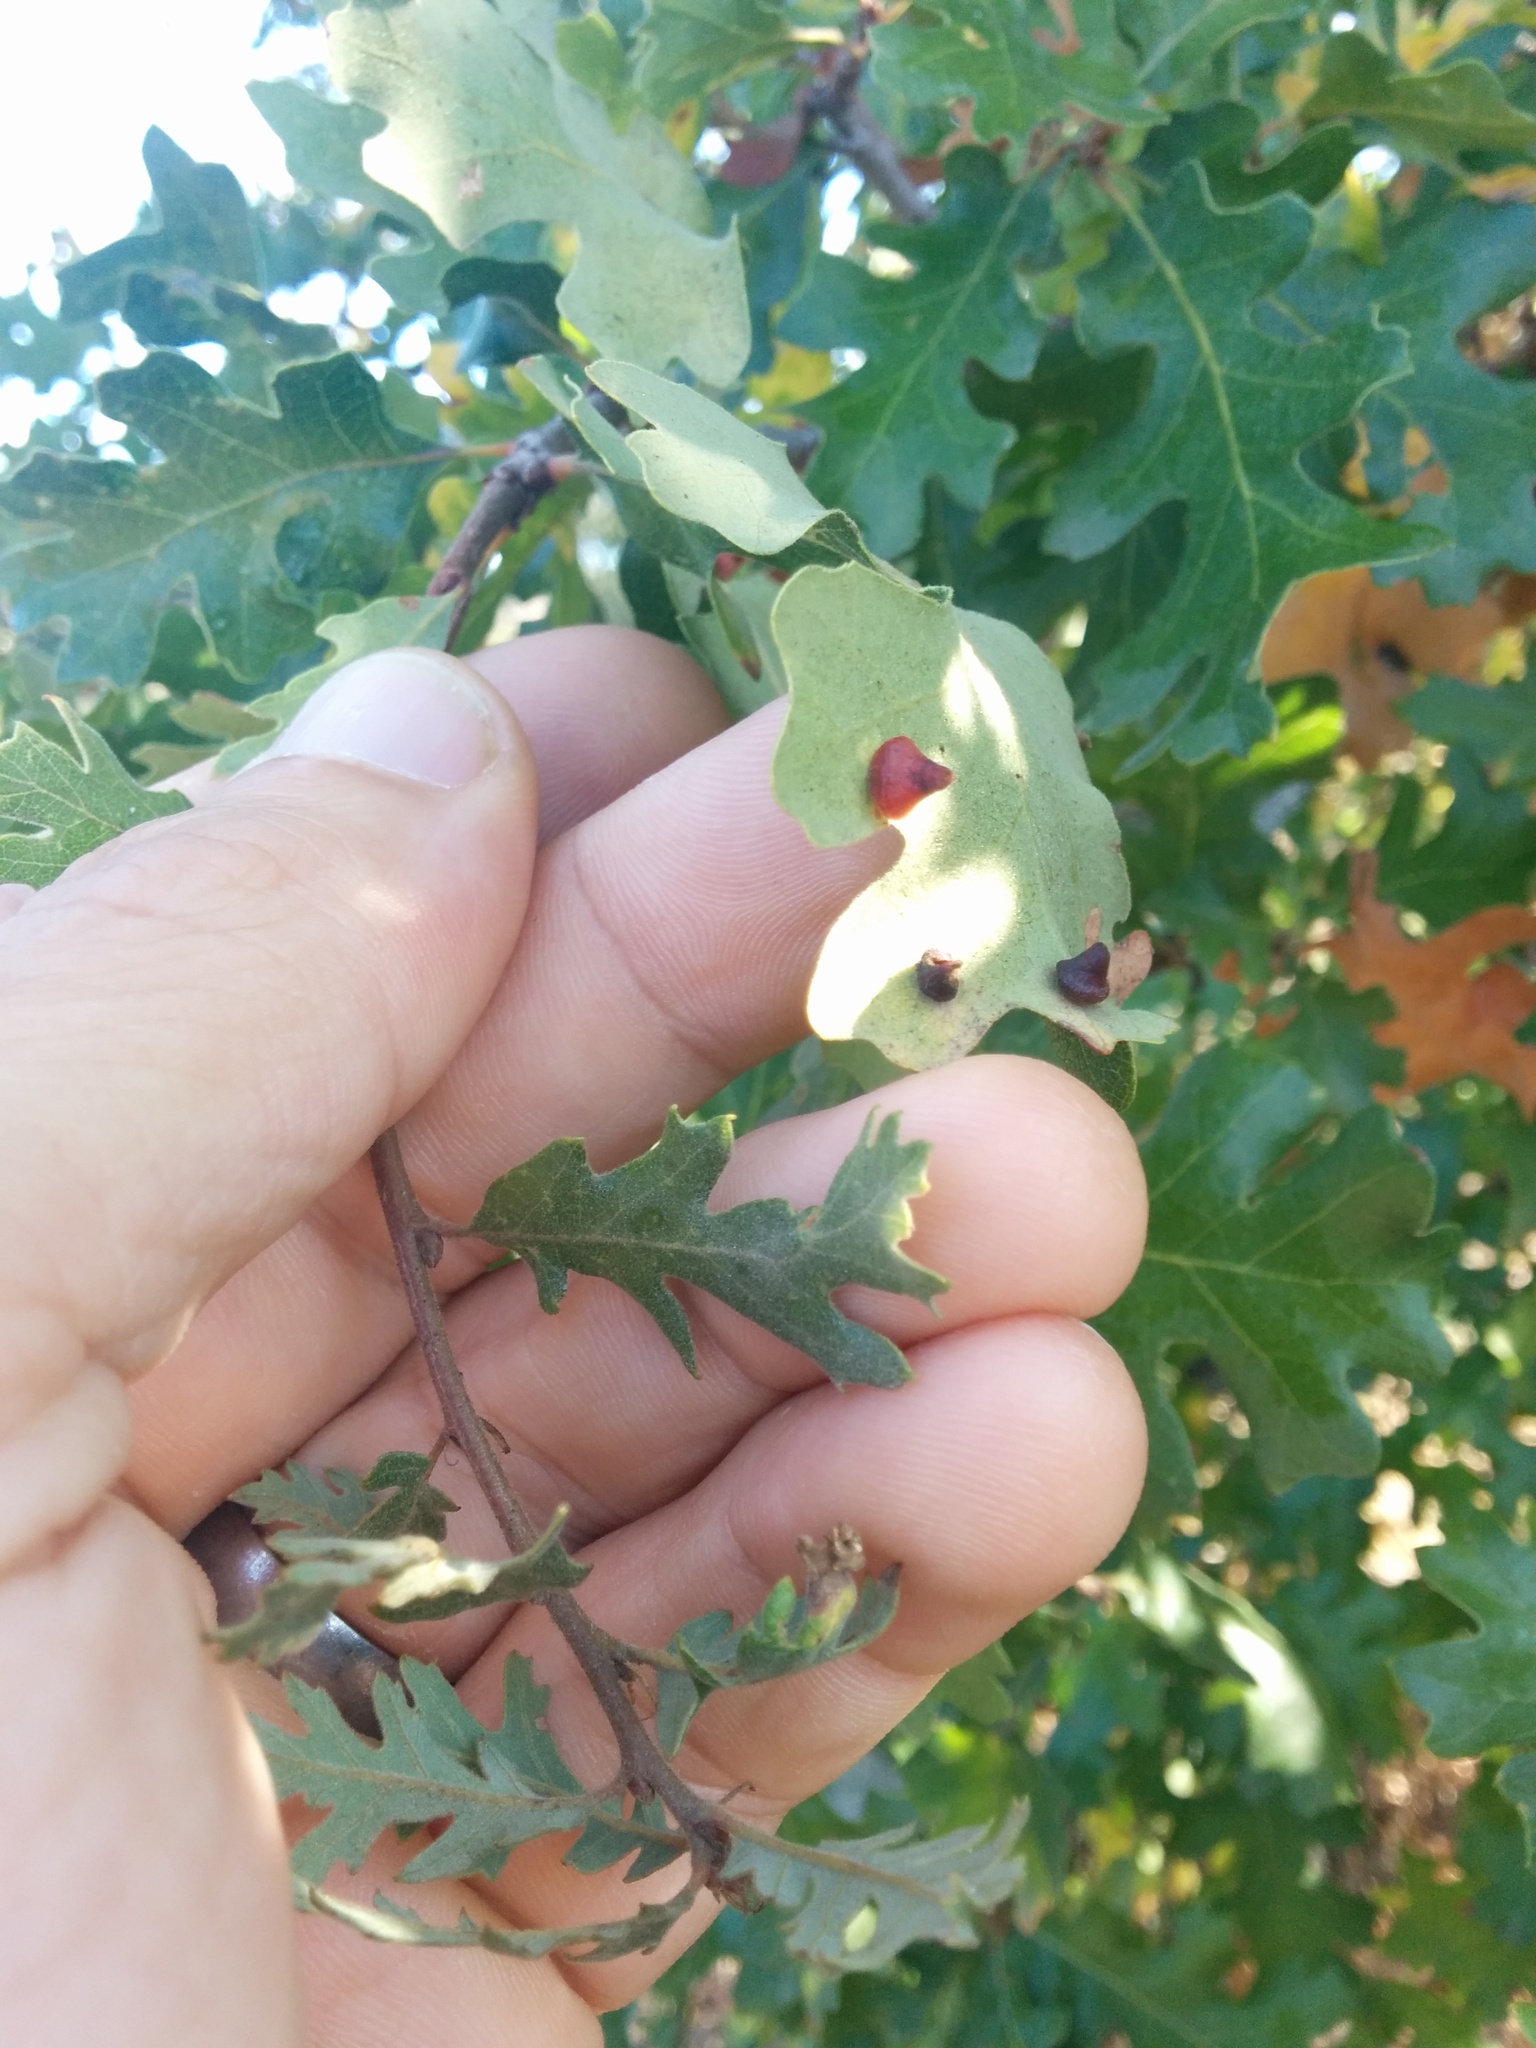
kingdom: Animalia
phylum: Arthropoda
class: Insecta
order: Hymenoptera
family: Cynipidae
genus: Andricus
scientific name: Andricus
